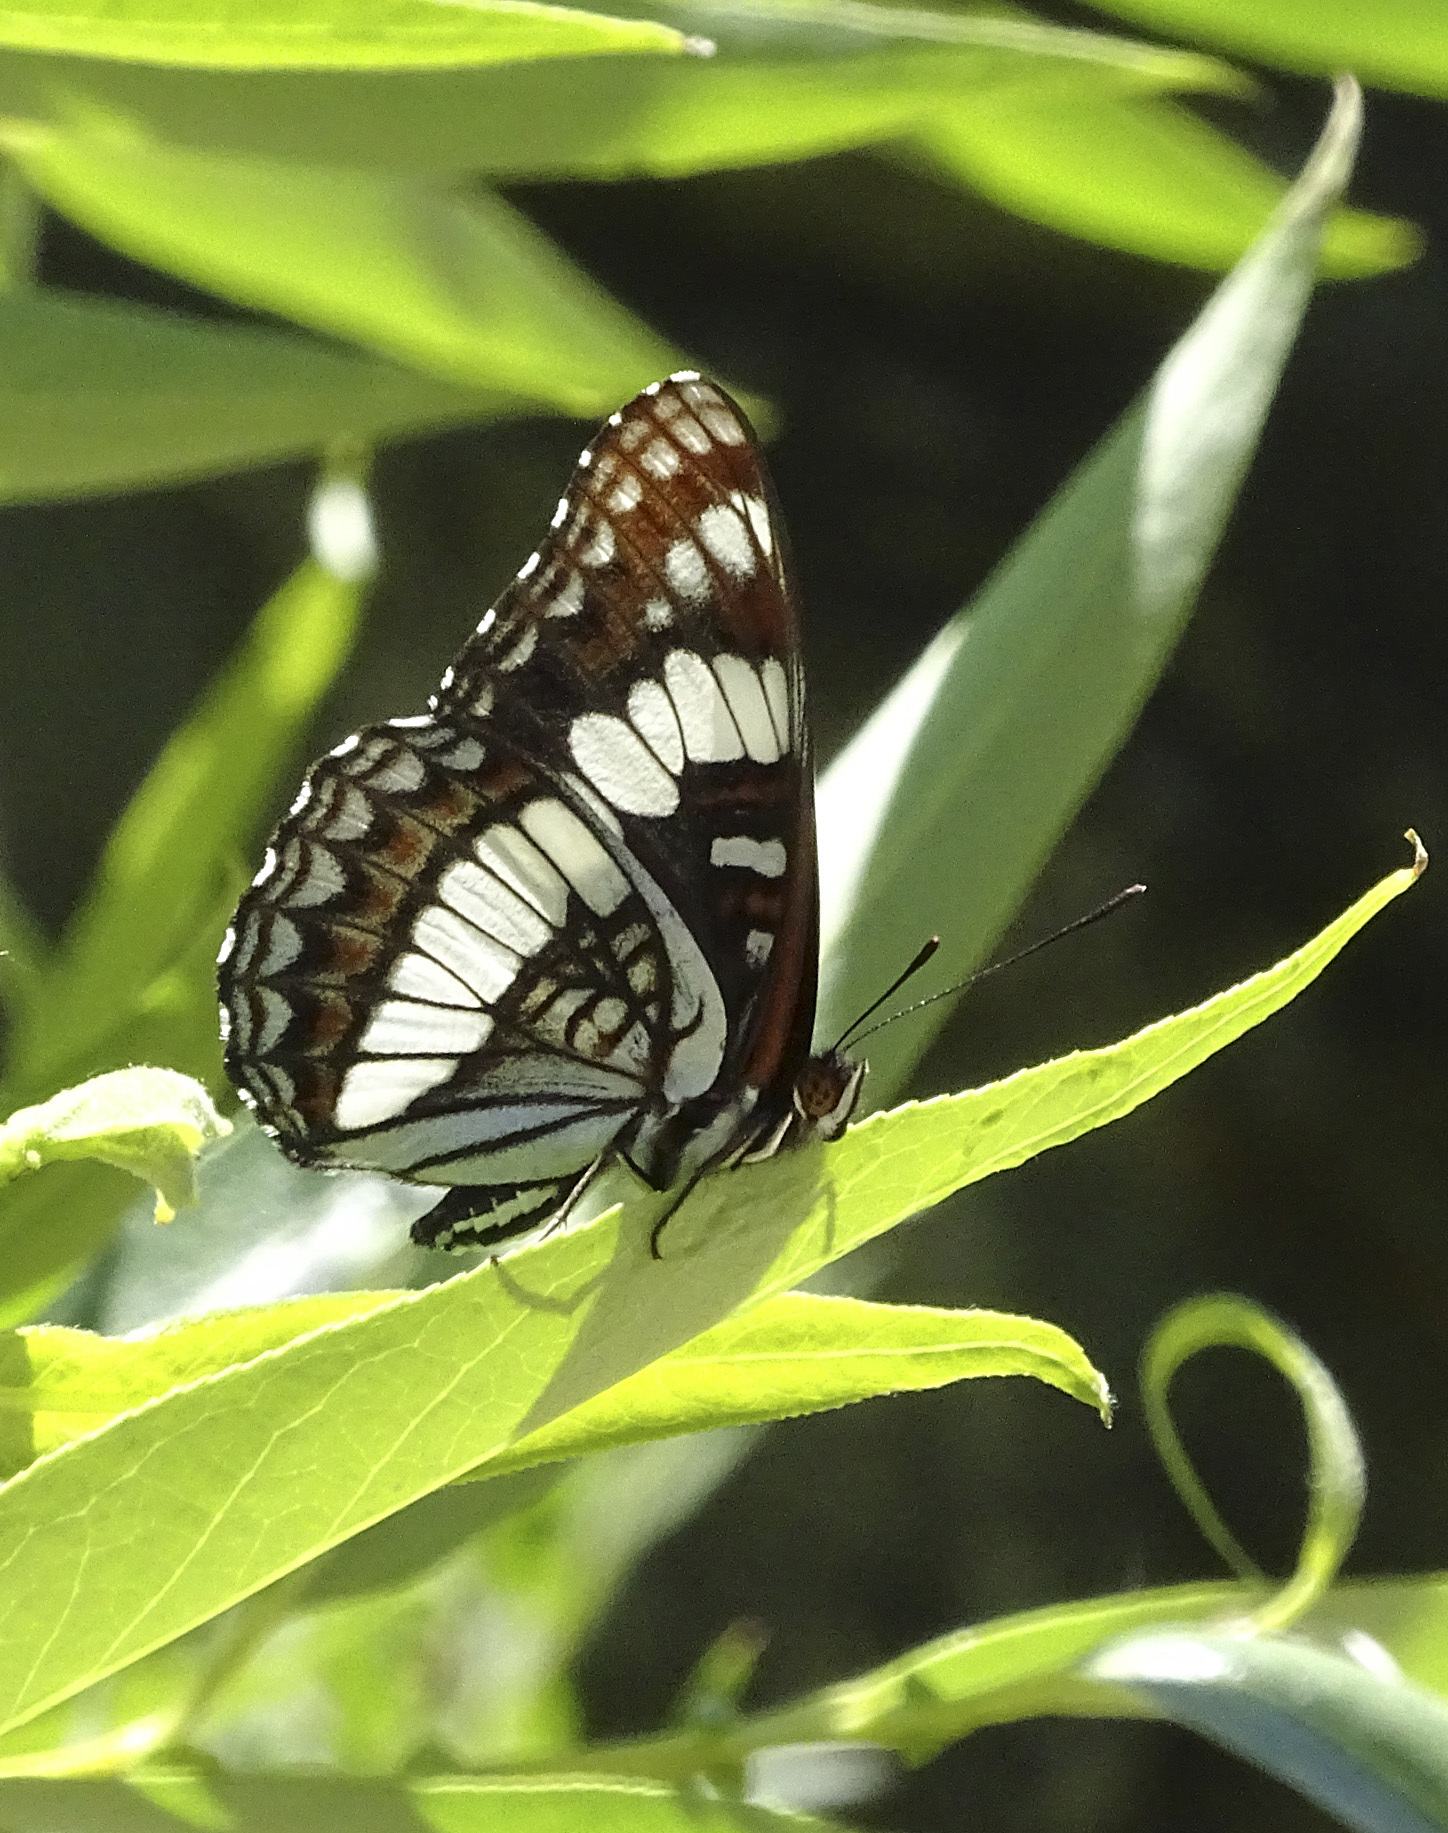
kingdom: Animalia
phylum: Arthropoda
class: Insecta
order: Lepidoptera
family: Nymphalidae
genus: Limenitis
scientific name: Limenitis weidemeyerii
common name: Weidemeyer's admiral
